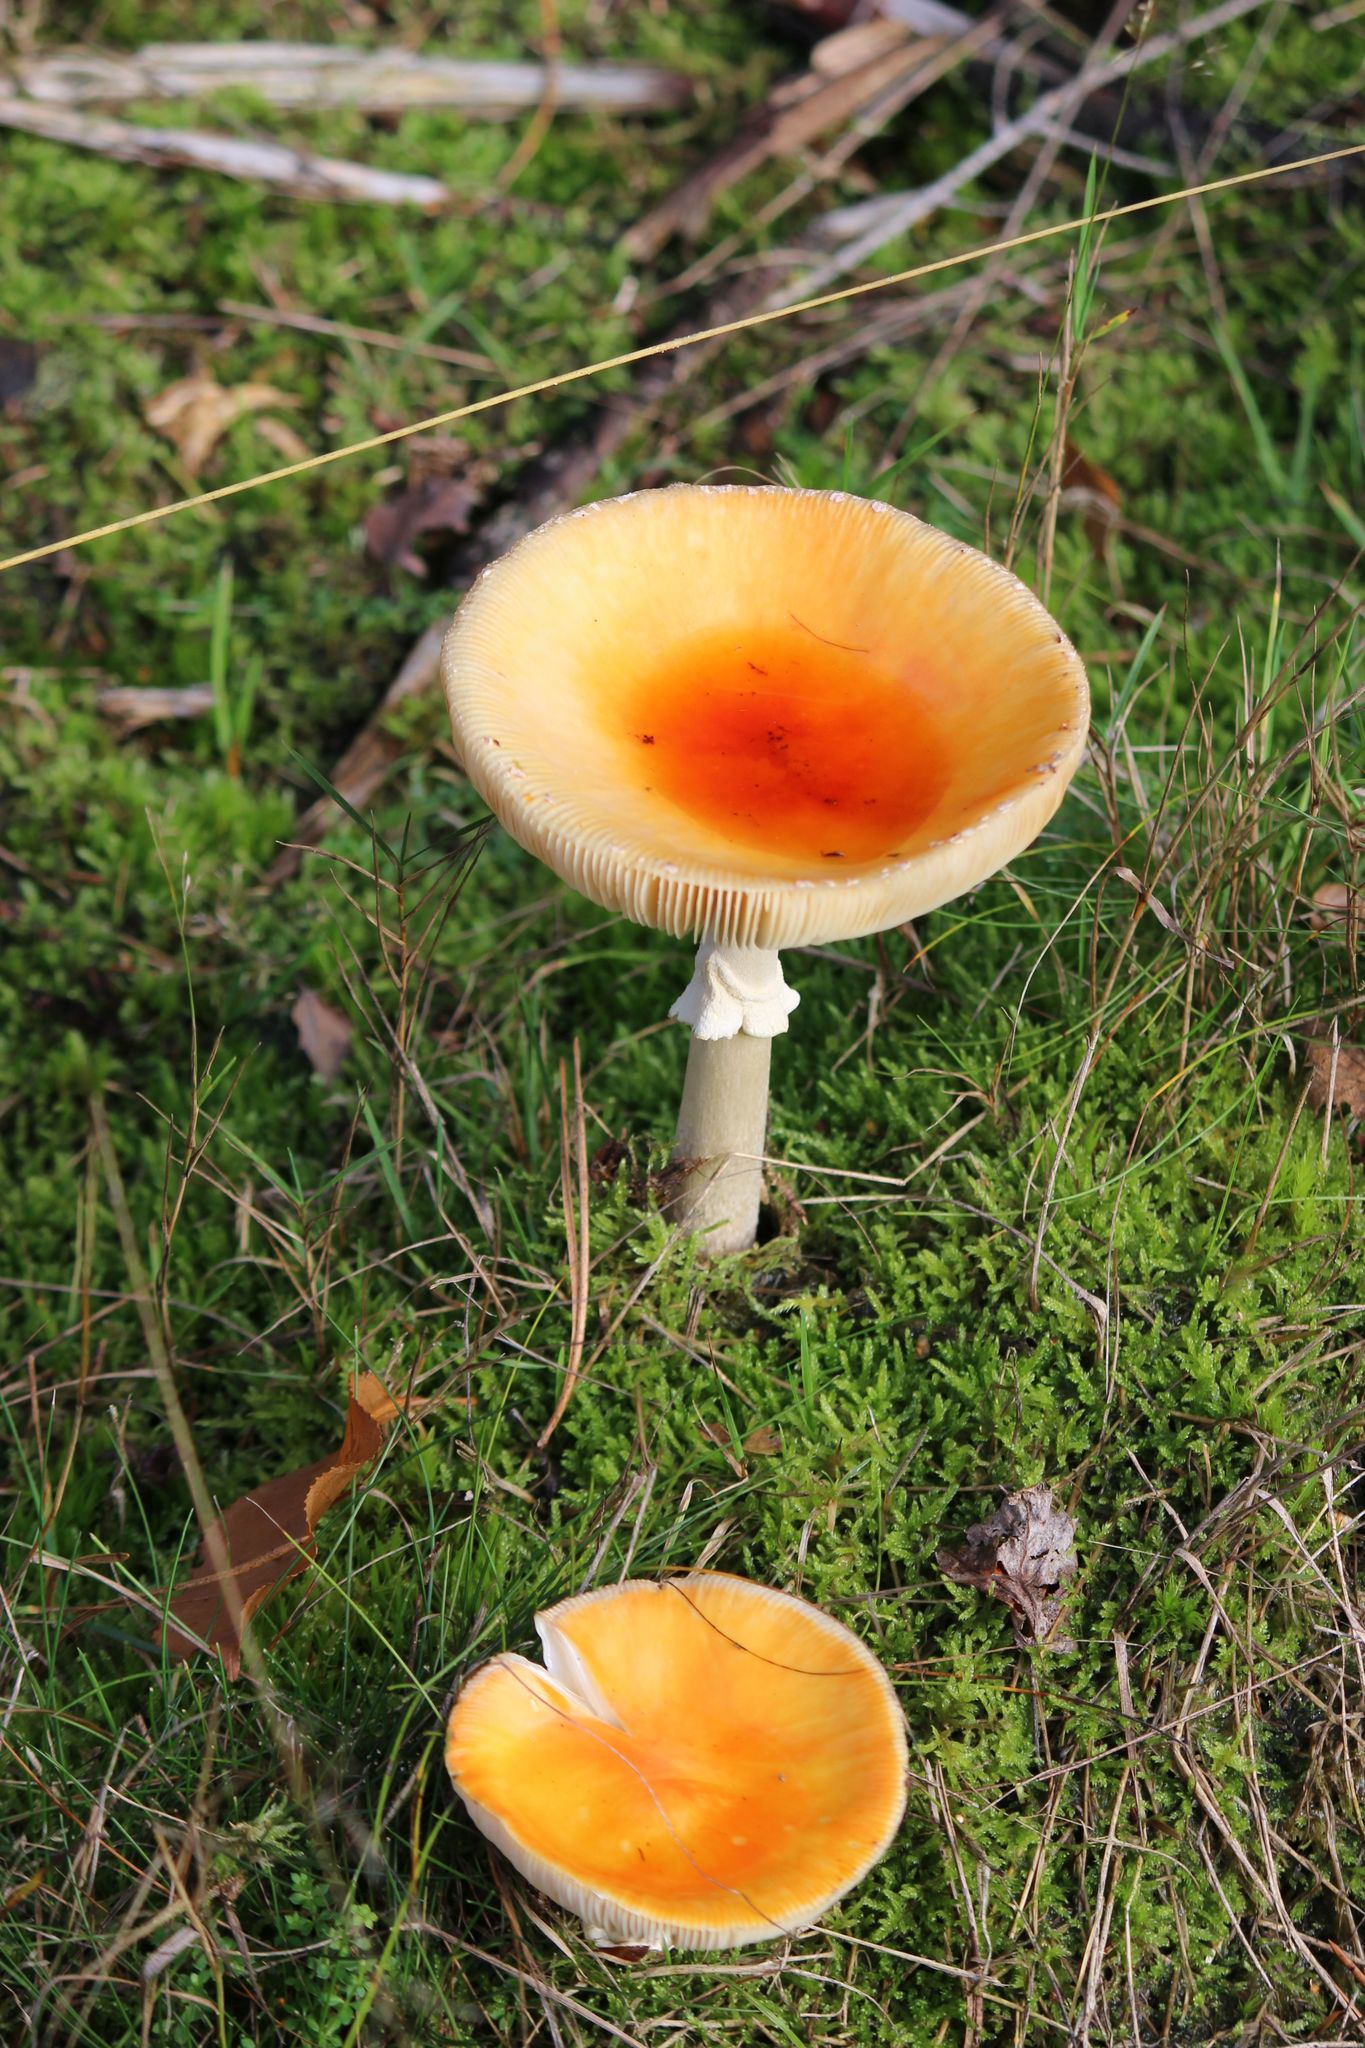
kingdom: Fungi
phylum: Basidiomycota
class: Agaricomycetes
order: Agaricales
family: Amanitaceae
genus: Amanita
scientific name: Amanita muscaria
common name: Fly agaric
